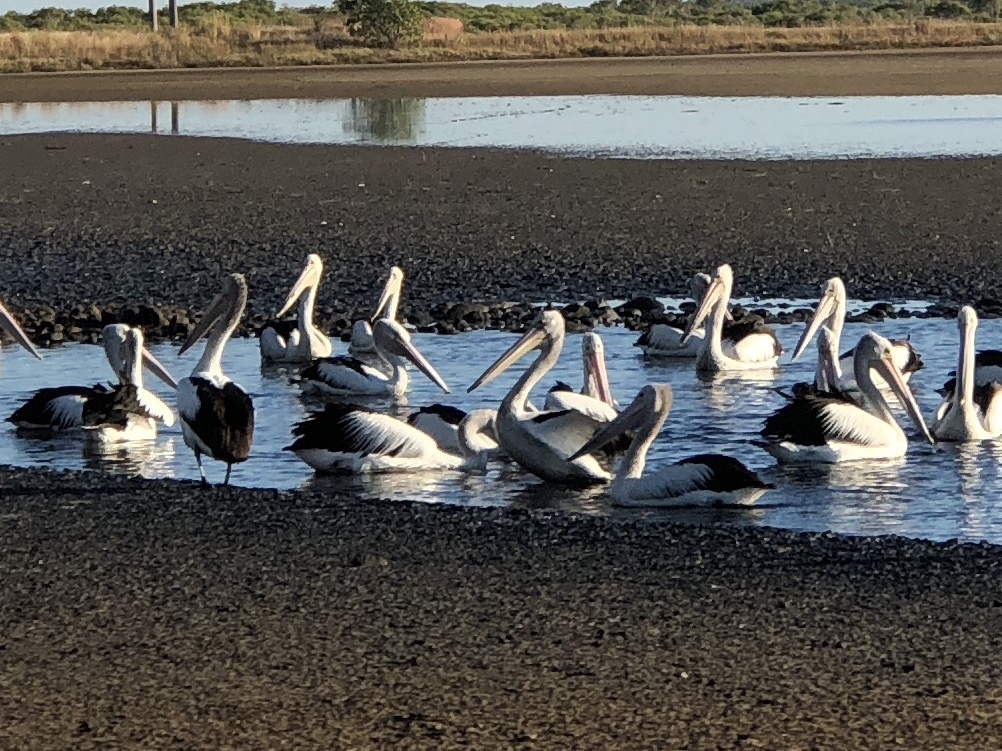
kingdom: Animalia
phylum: Chordata
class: Aves
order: Pelecaniformes
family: Pelecanidae
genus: Pelecanus
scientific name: Pelecanus conspicillatus
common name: Australian pelican
